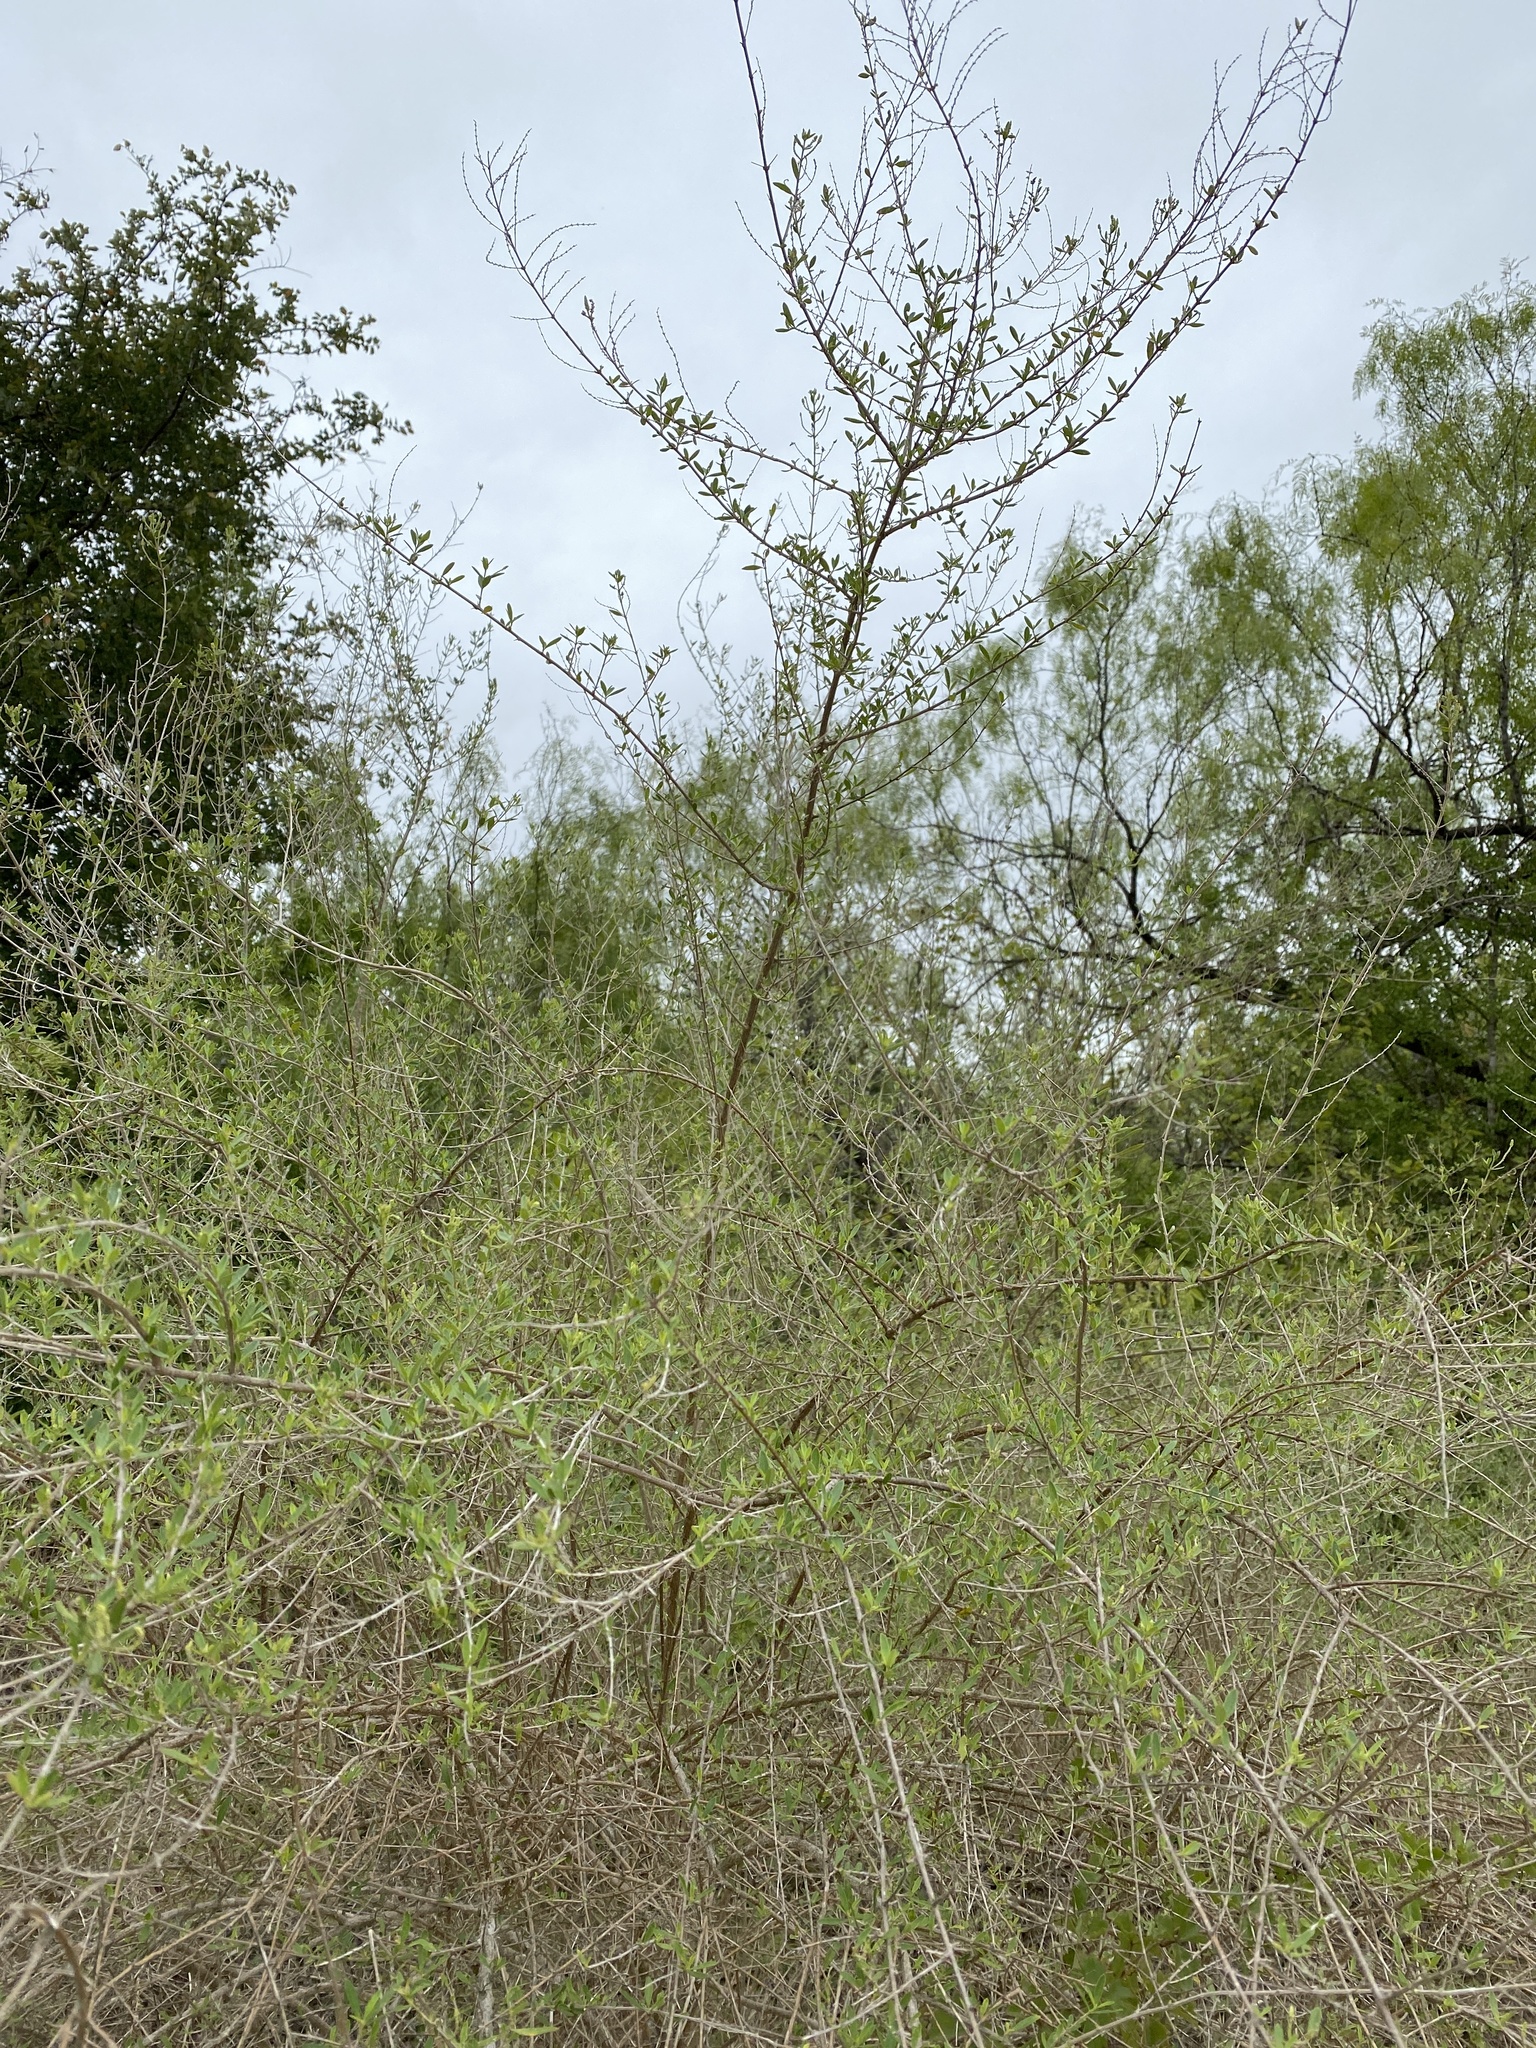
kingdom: Plantae
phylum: Tracheophyta
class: Magnoliopsida
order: Lamiales
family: Verbenaceae
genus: Aloysia
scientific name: Aloysia gratissima
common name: Common bee-brush
